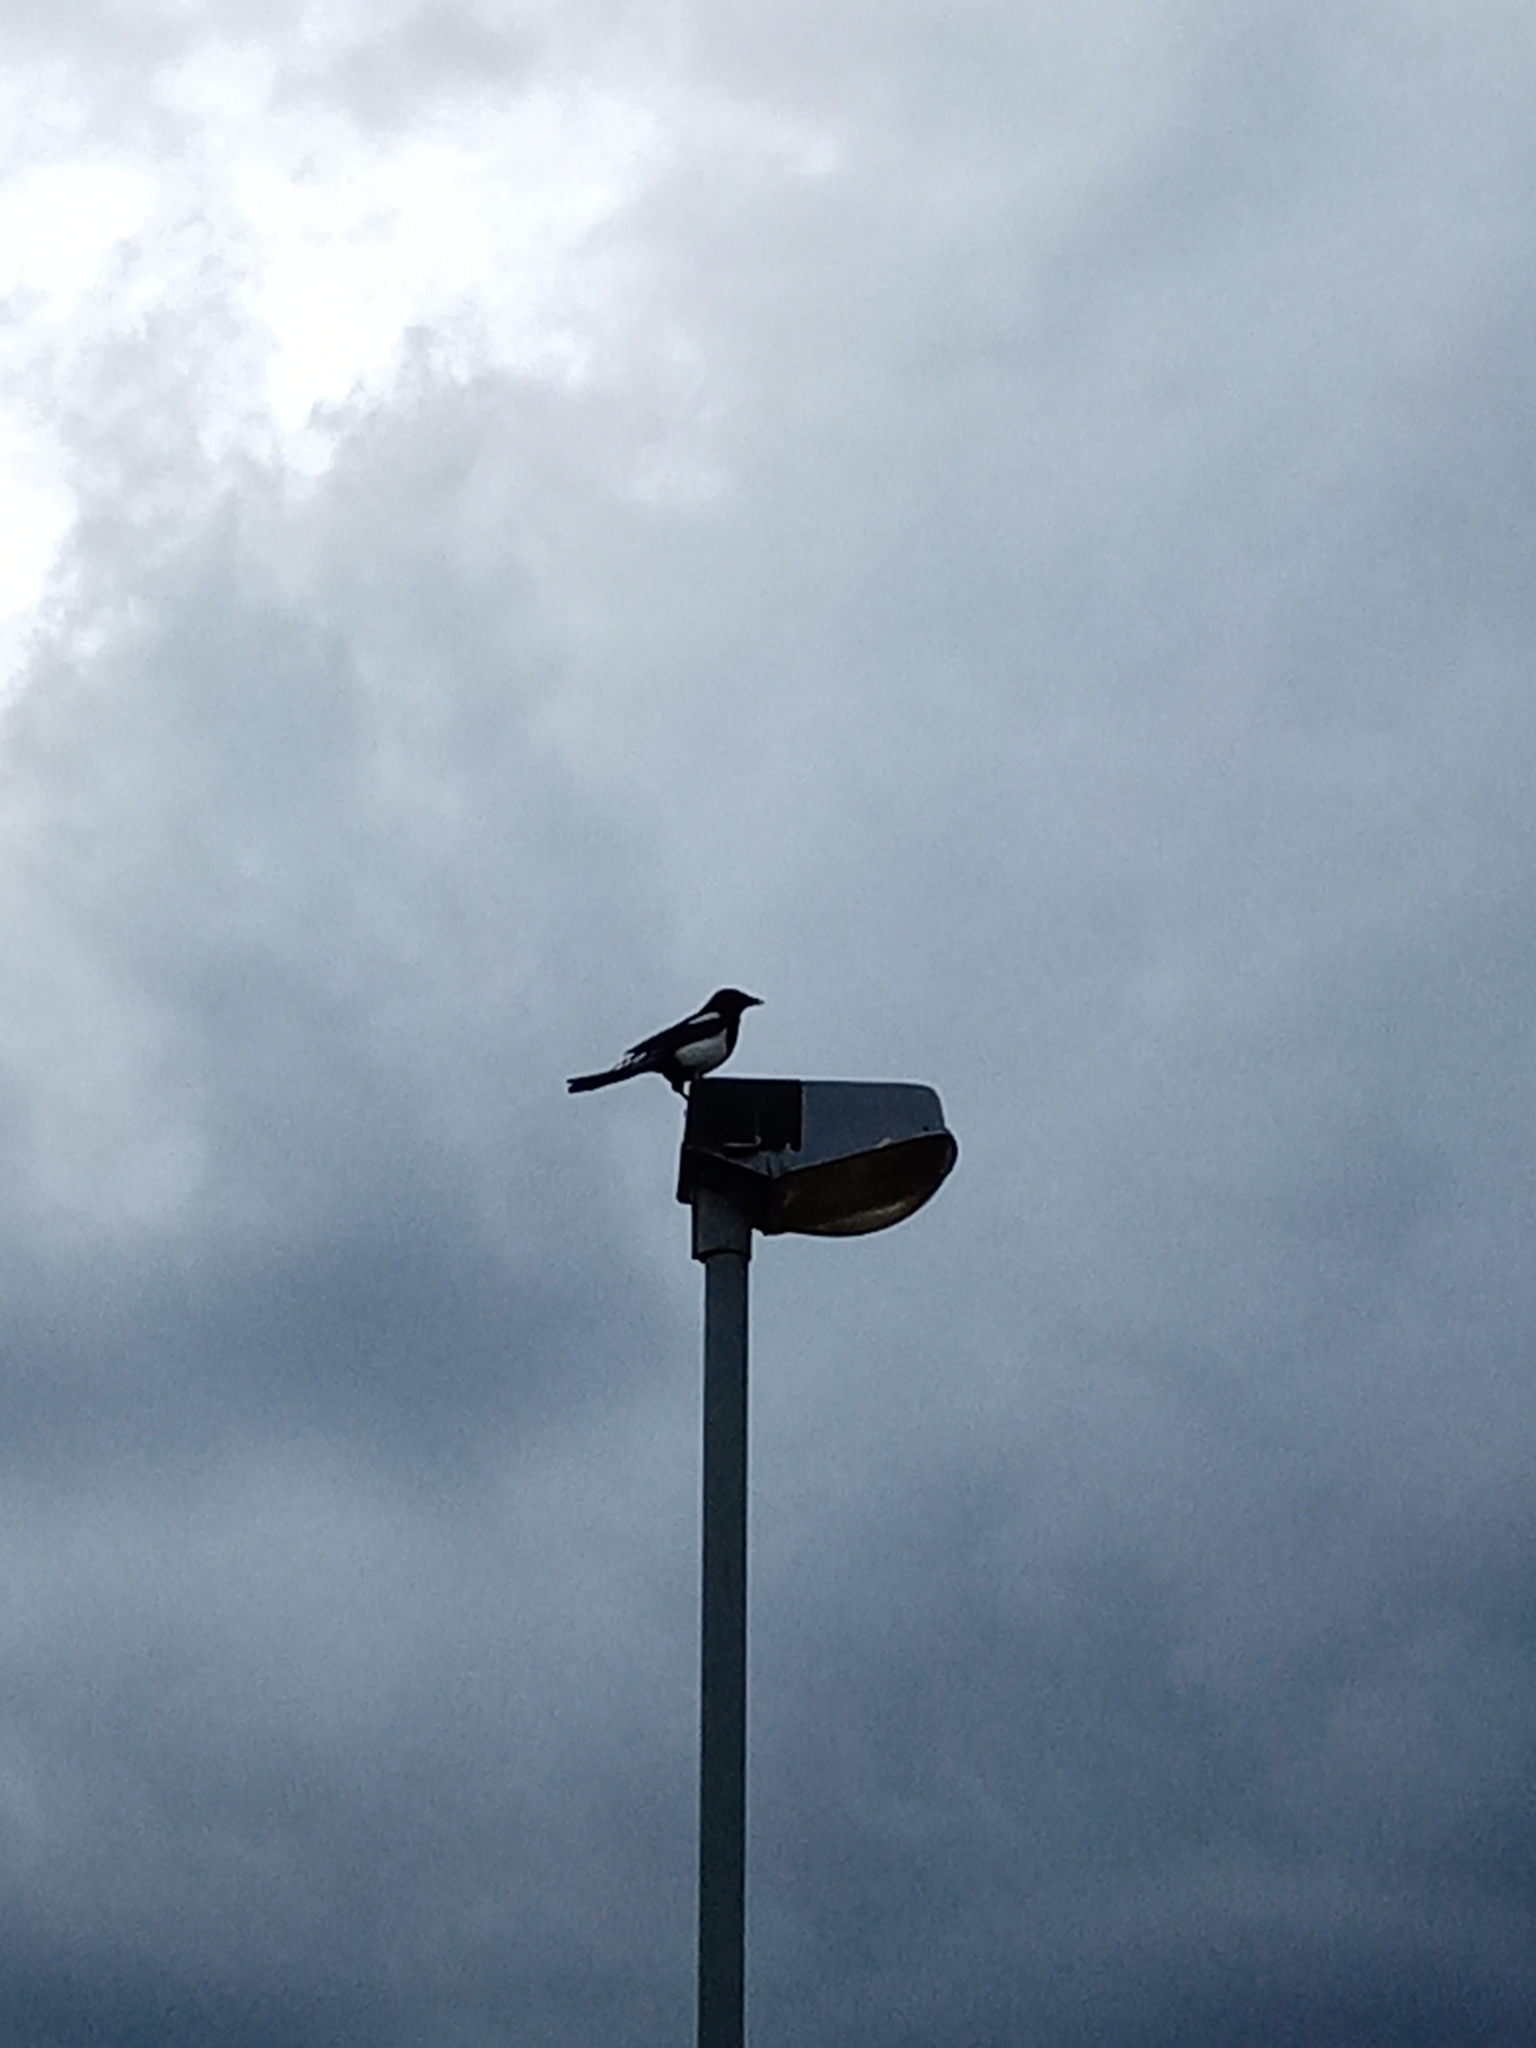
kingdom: Animalia
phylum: Chordata
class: Aves
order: Passeriformes
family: Corvidae
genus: Pica
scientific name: Pica pica
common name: Eurasian magpie
